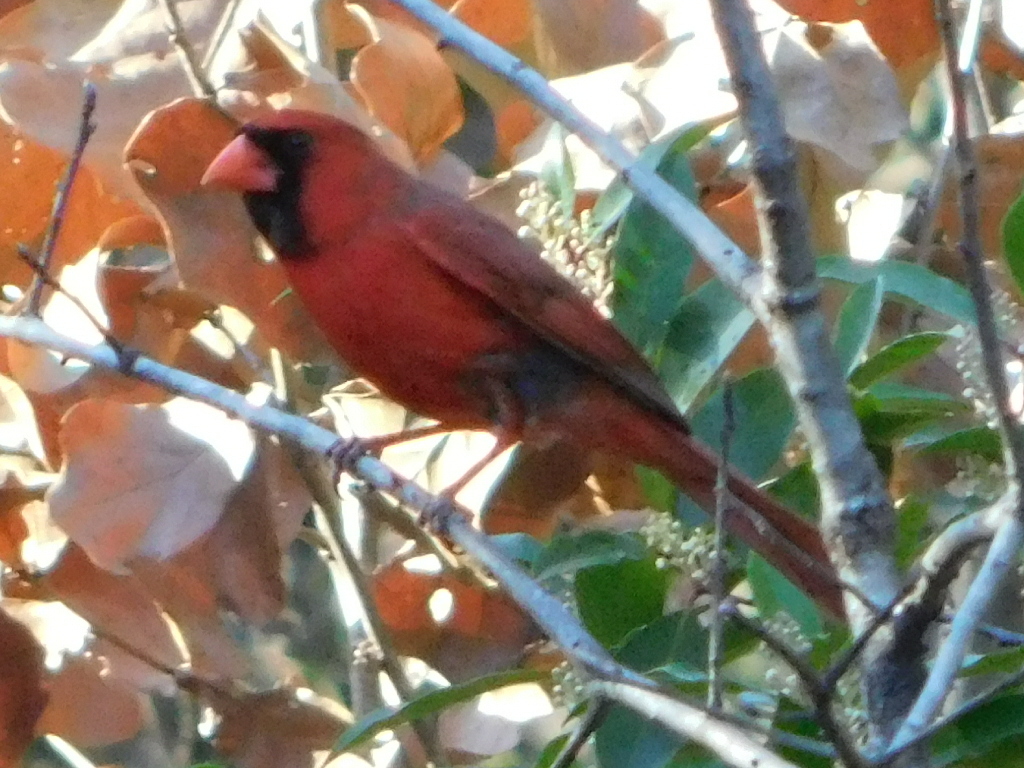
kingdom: Animalia
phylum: Chordata
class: Aves
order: Passeriformes
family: Cardinalidae
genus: Cardinalis
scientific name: Cardinalis cardinalis
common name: Northern cardinal
